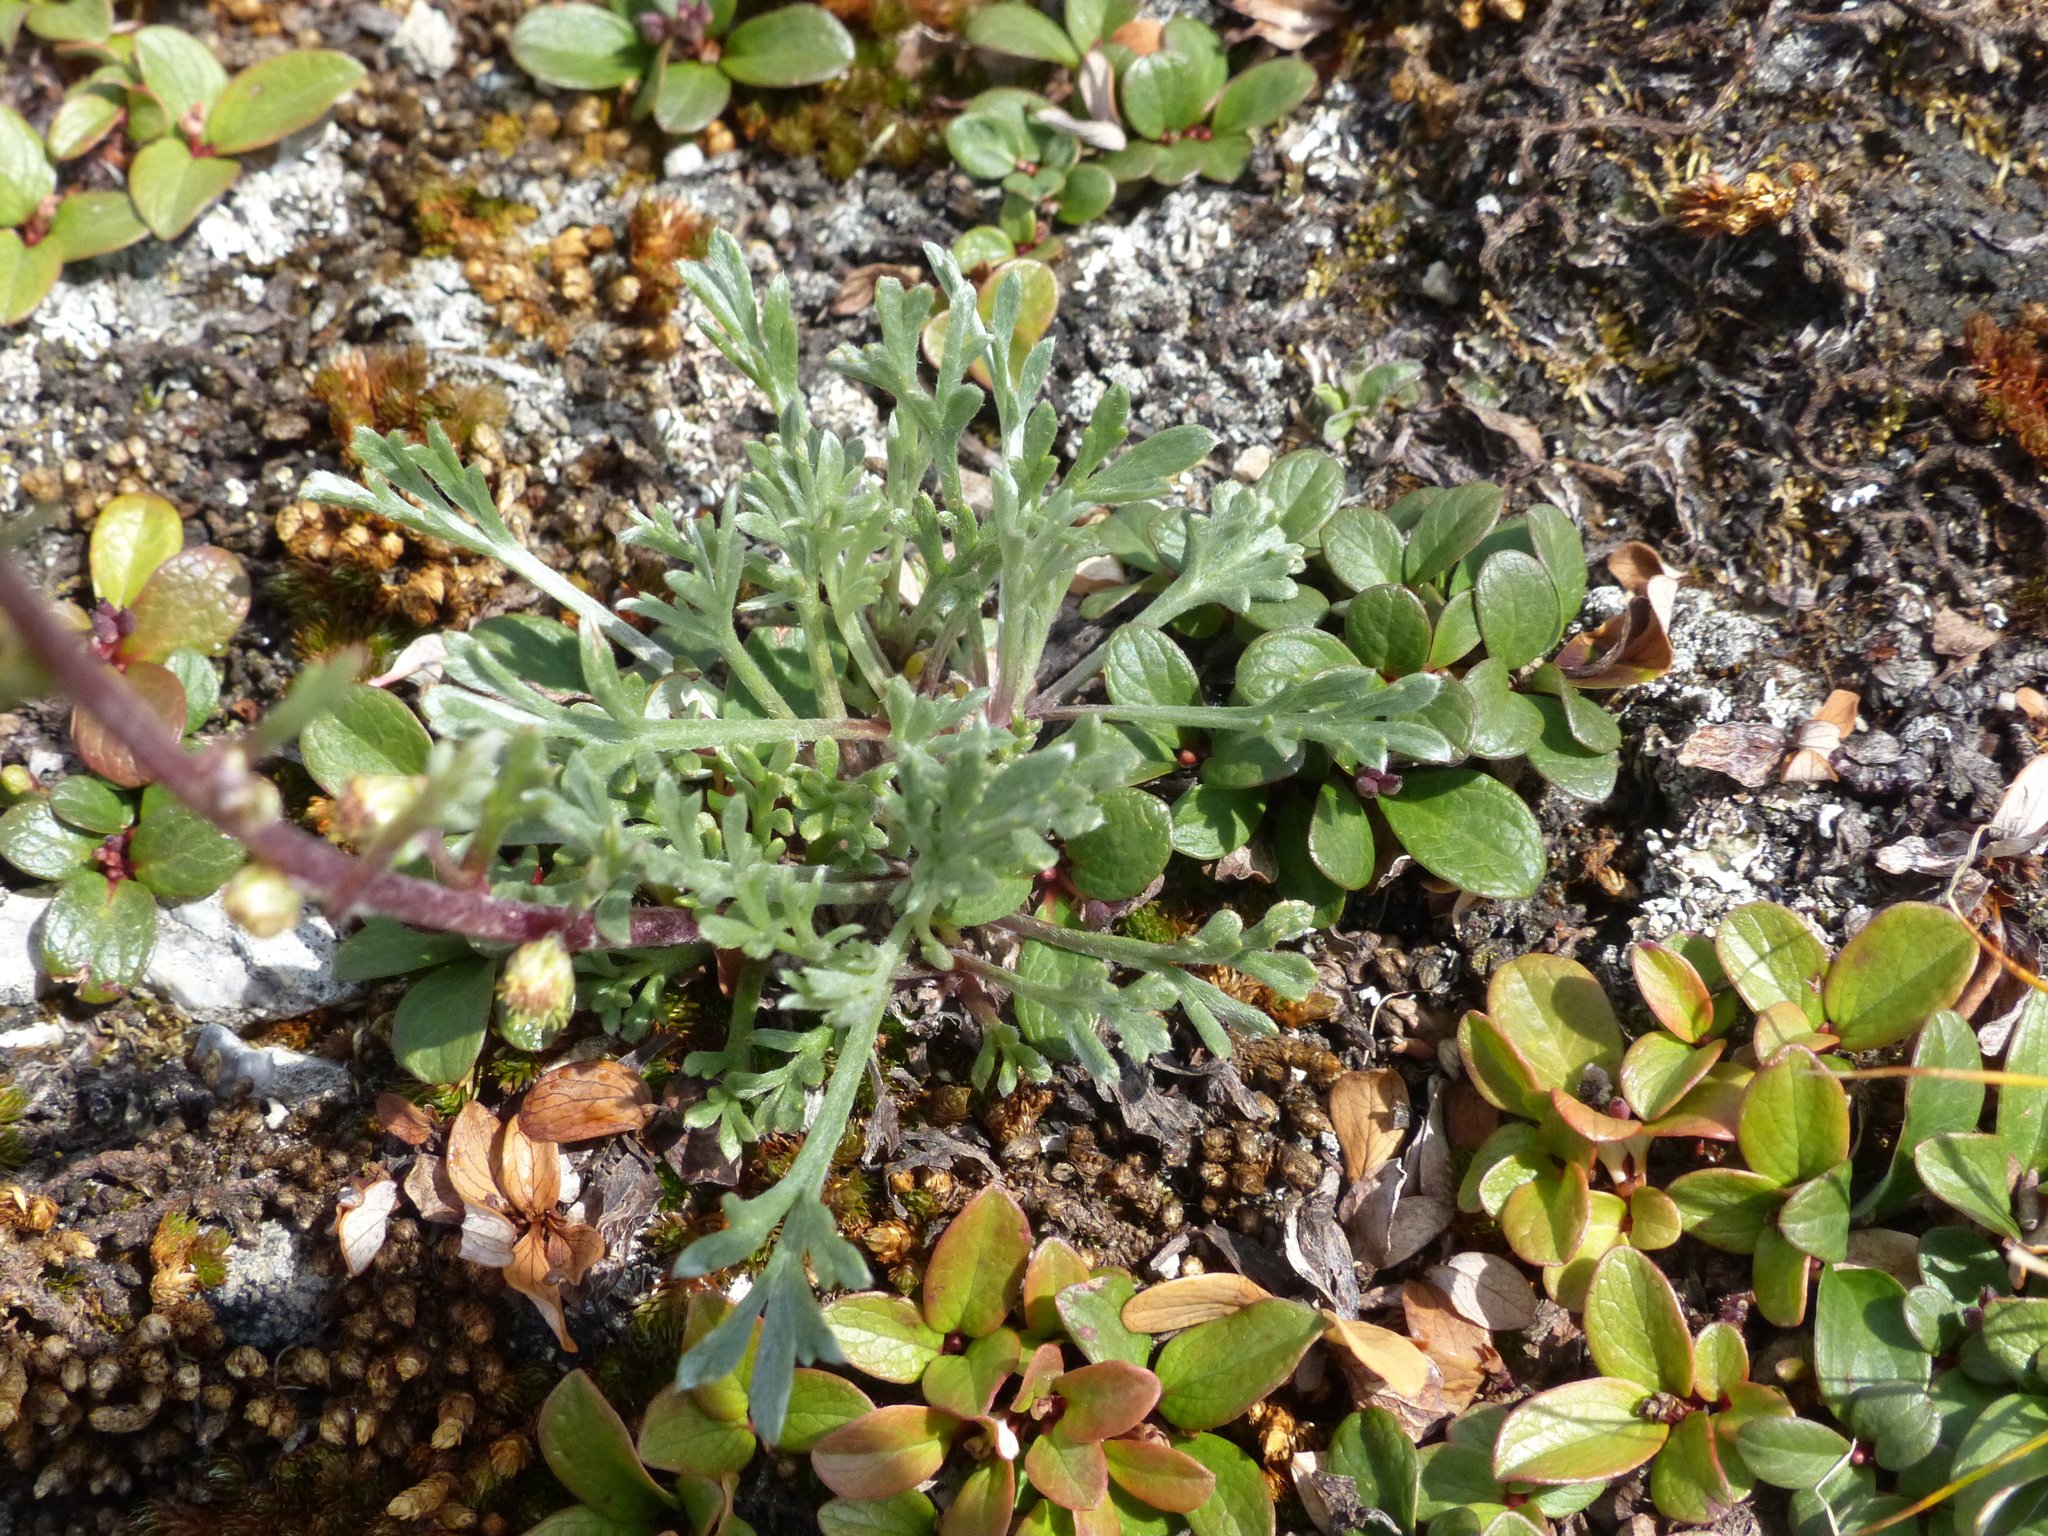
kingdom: Plantae
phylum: Tracheophyta
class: Magnoliopsida
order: Asterales
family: Asteraceae
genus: Artemisia
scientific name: Artemisia borealis
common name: Boreal sage
